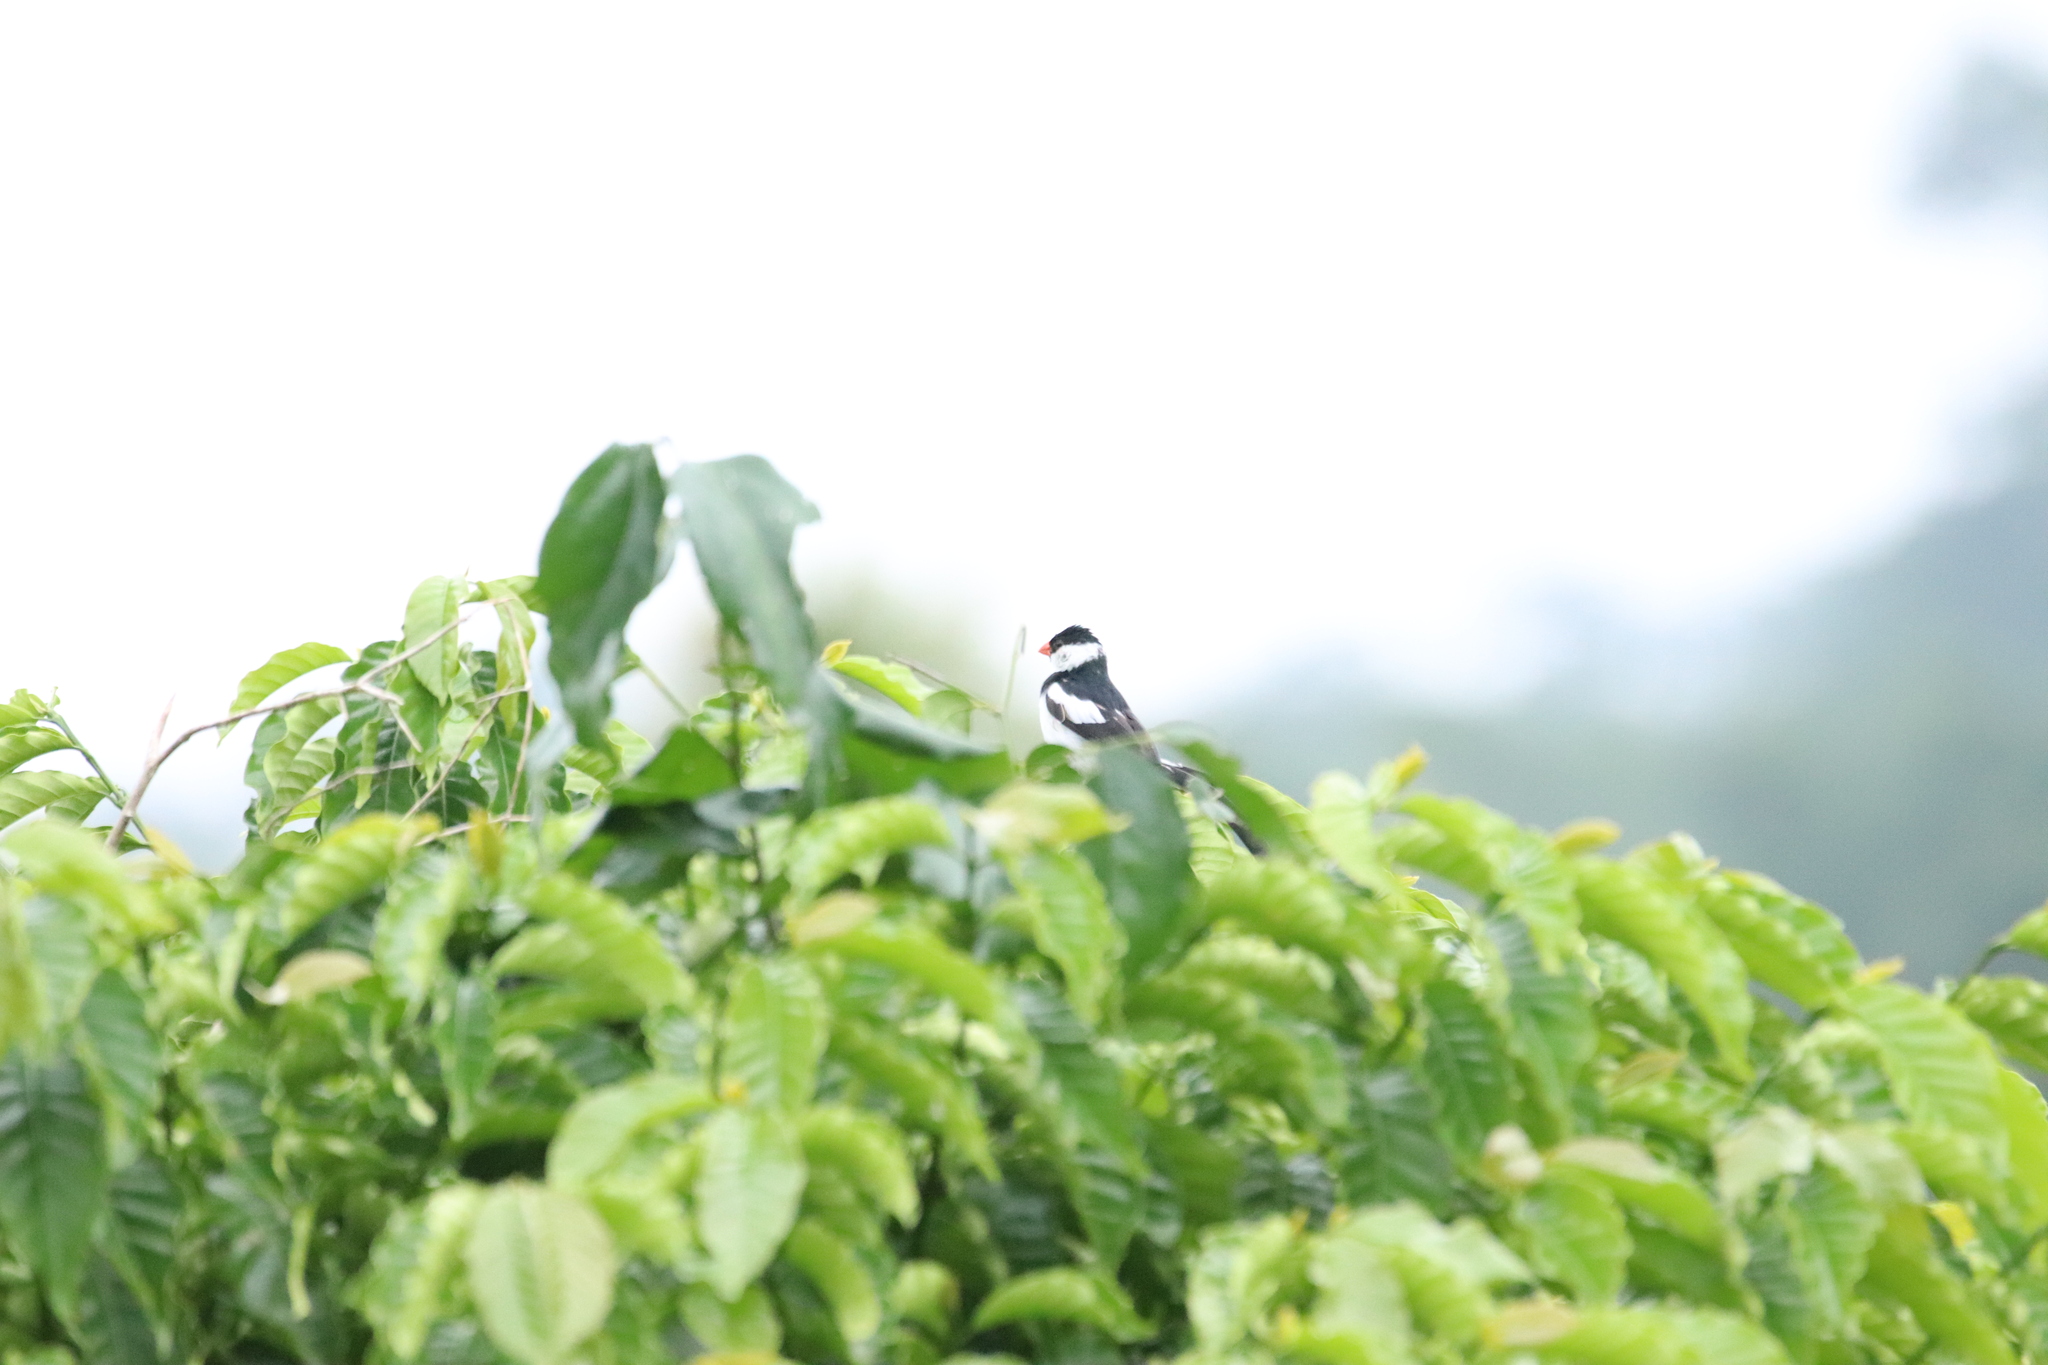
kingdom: Animalia
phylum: Chordata
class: Aves
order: Passeriformes
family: Viduidae
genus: Vidua
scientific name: Vidua macroura
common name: Pin-tailed whydah
